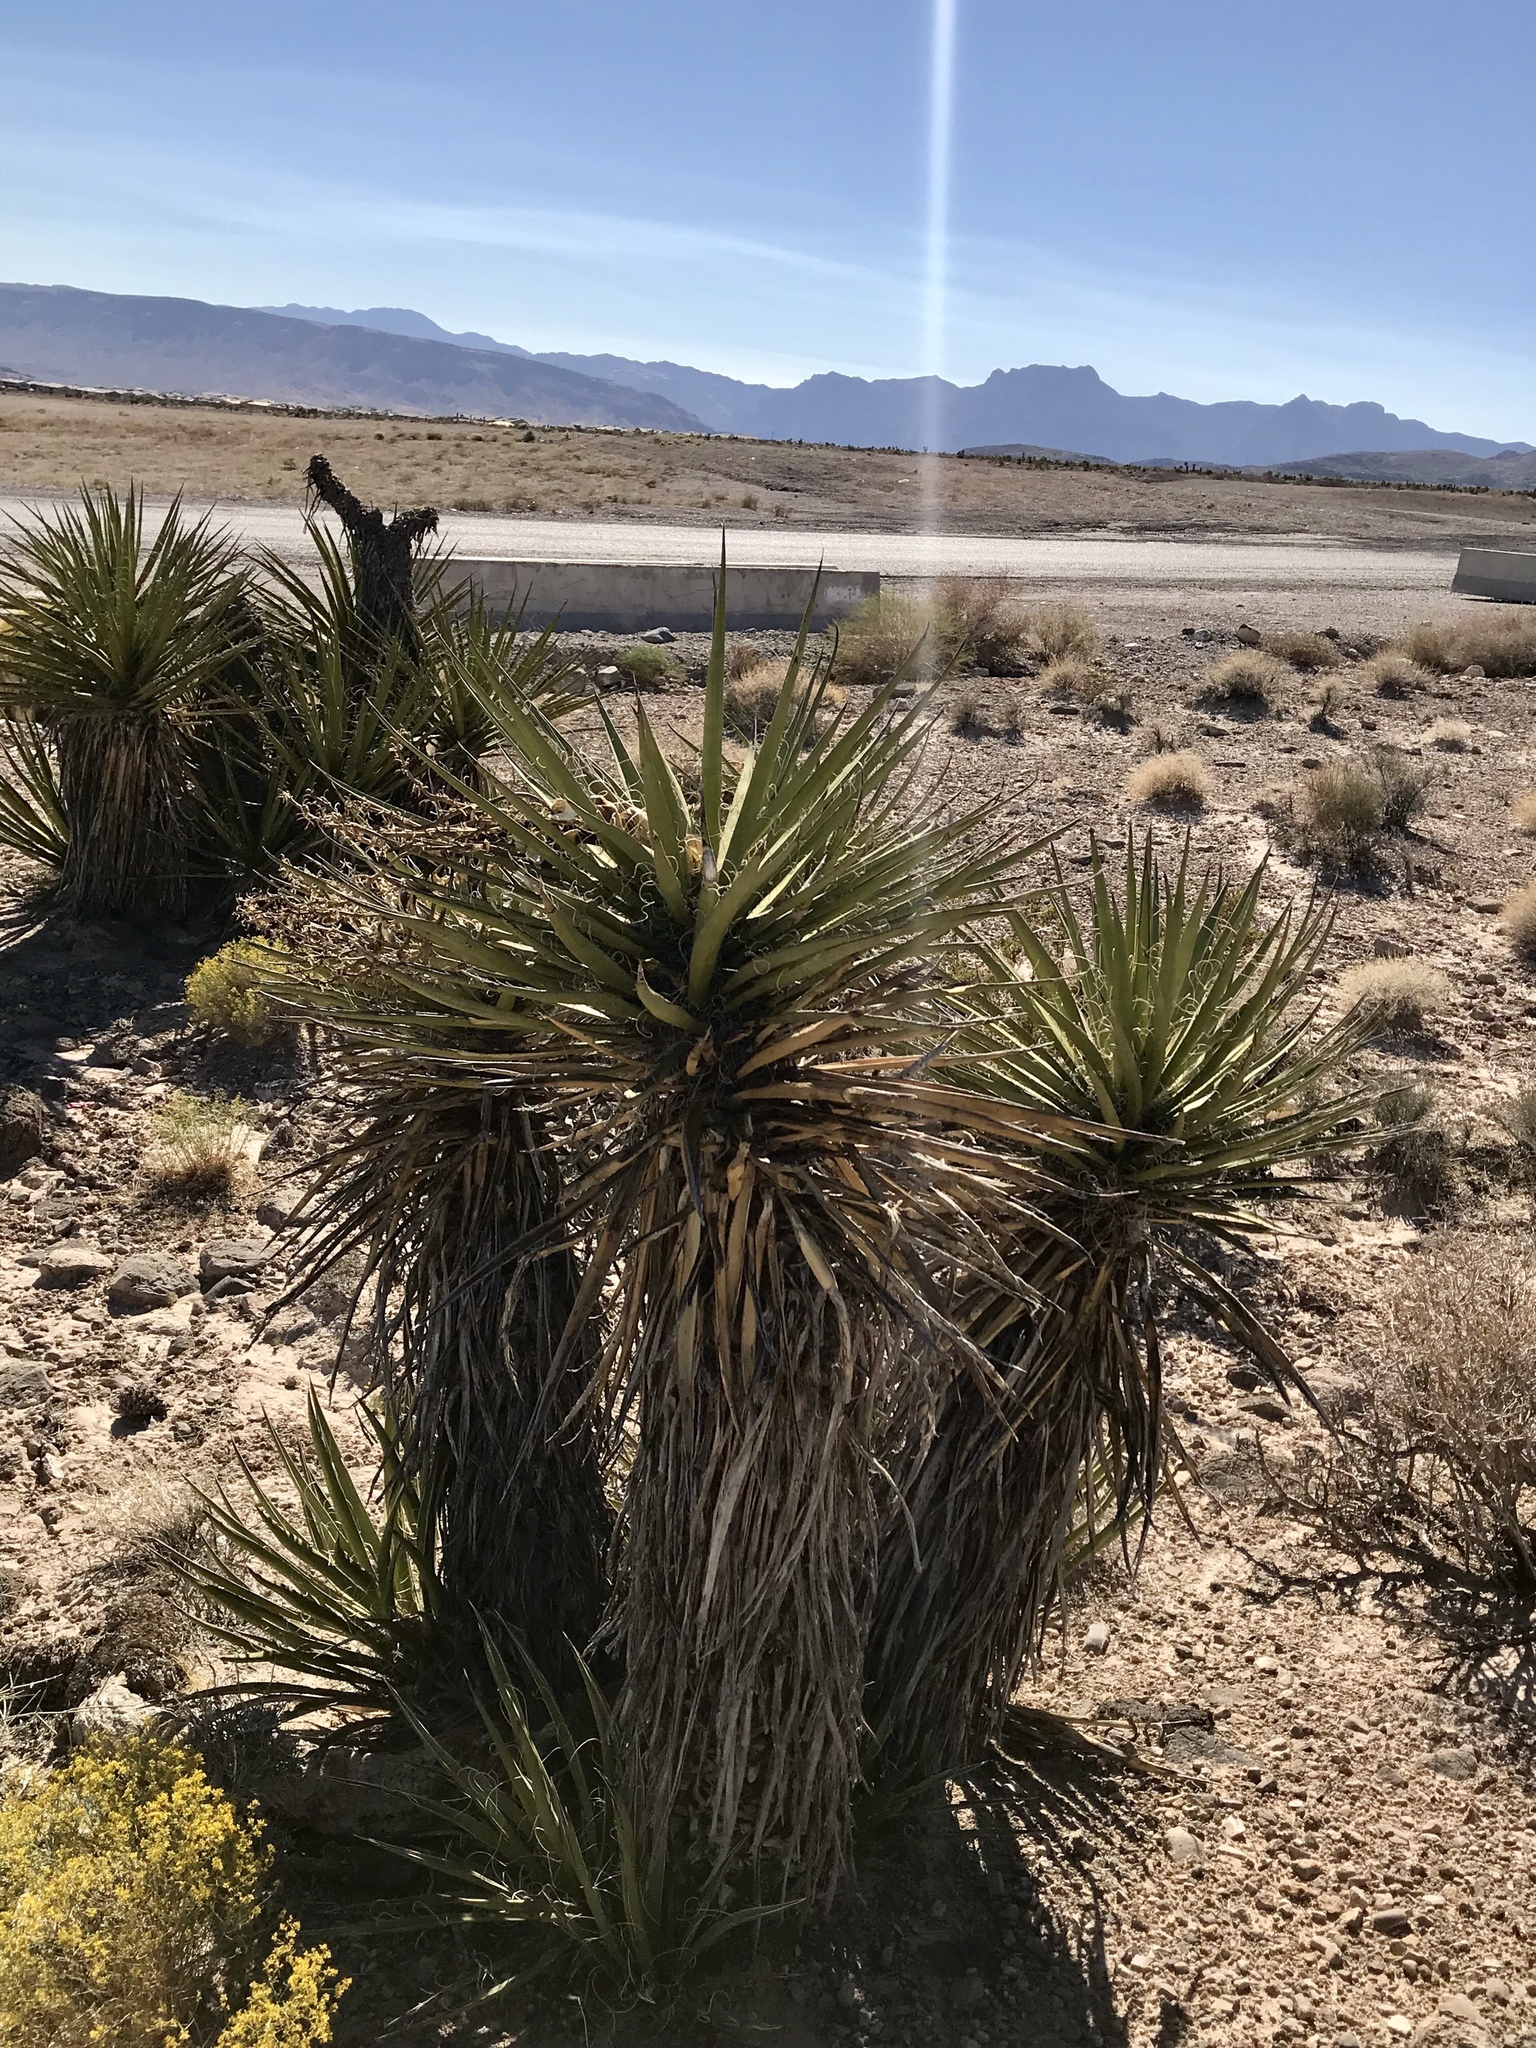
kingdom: Plantae
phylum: Tracheophyta
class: Liliopsida
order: Asparagales
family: Asparagaceae
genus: Yucca
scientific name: Yucca schidigera
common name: Mojave yucca
